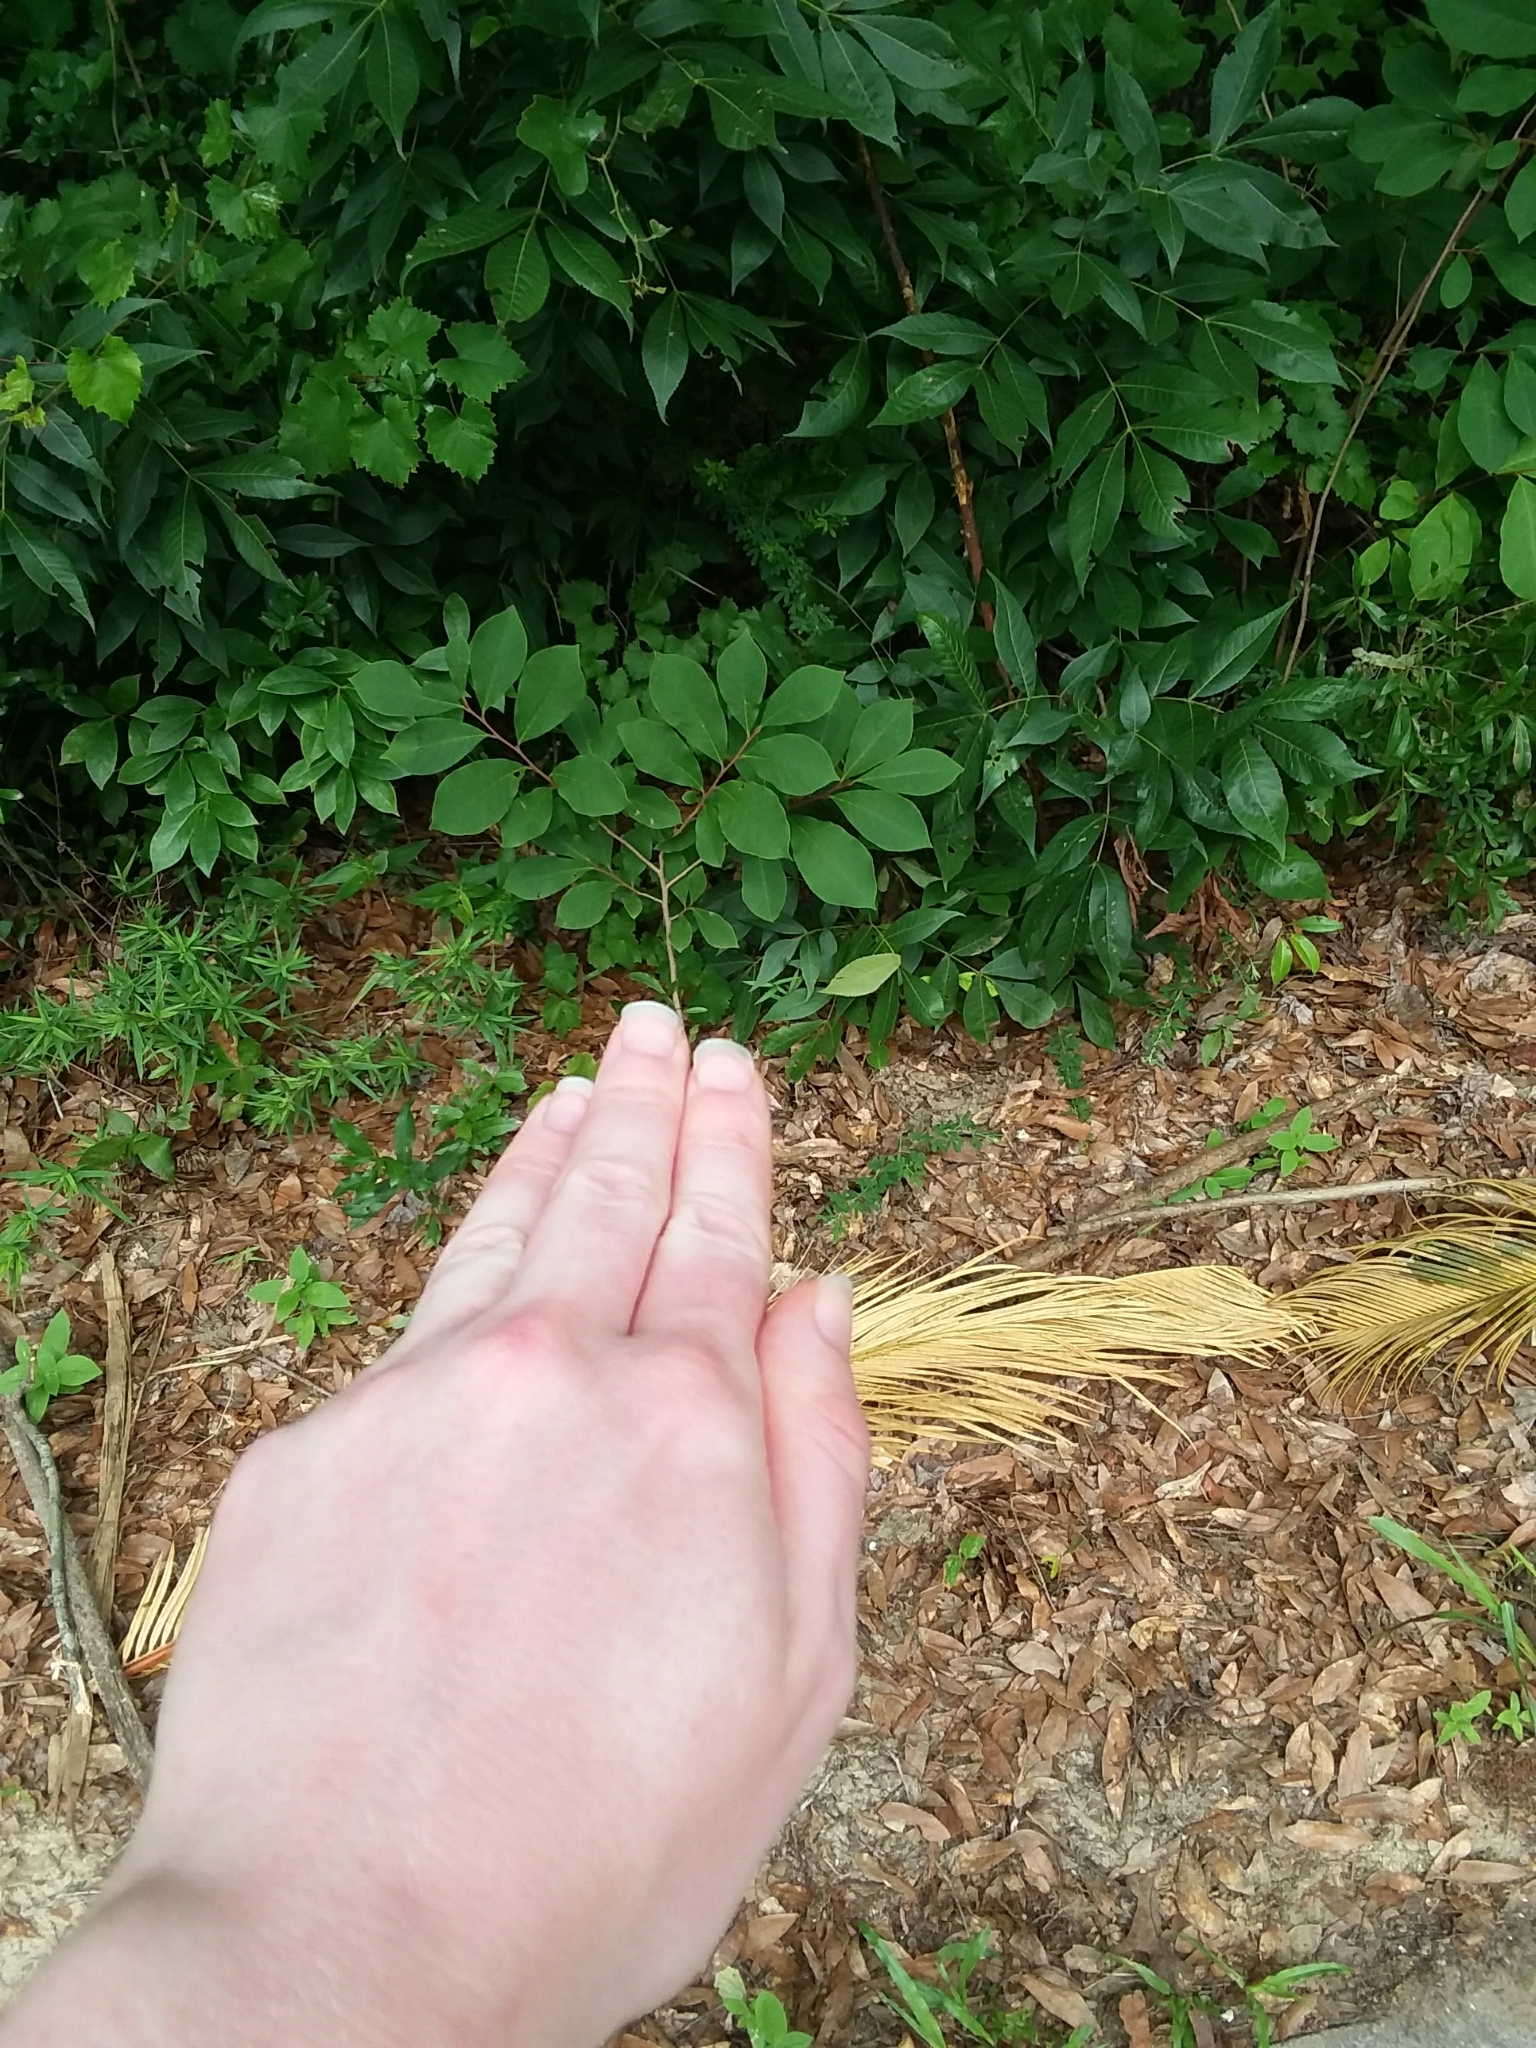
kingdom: Plantae
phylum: Tracheophyta
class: Magnoliopsida
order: Magnoliales
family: Annonaceae
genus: Asimina
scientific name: Asimina parviflora
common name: Dwarf pawpaw
